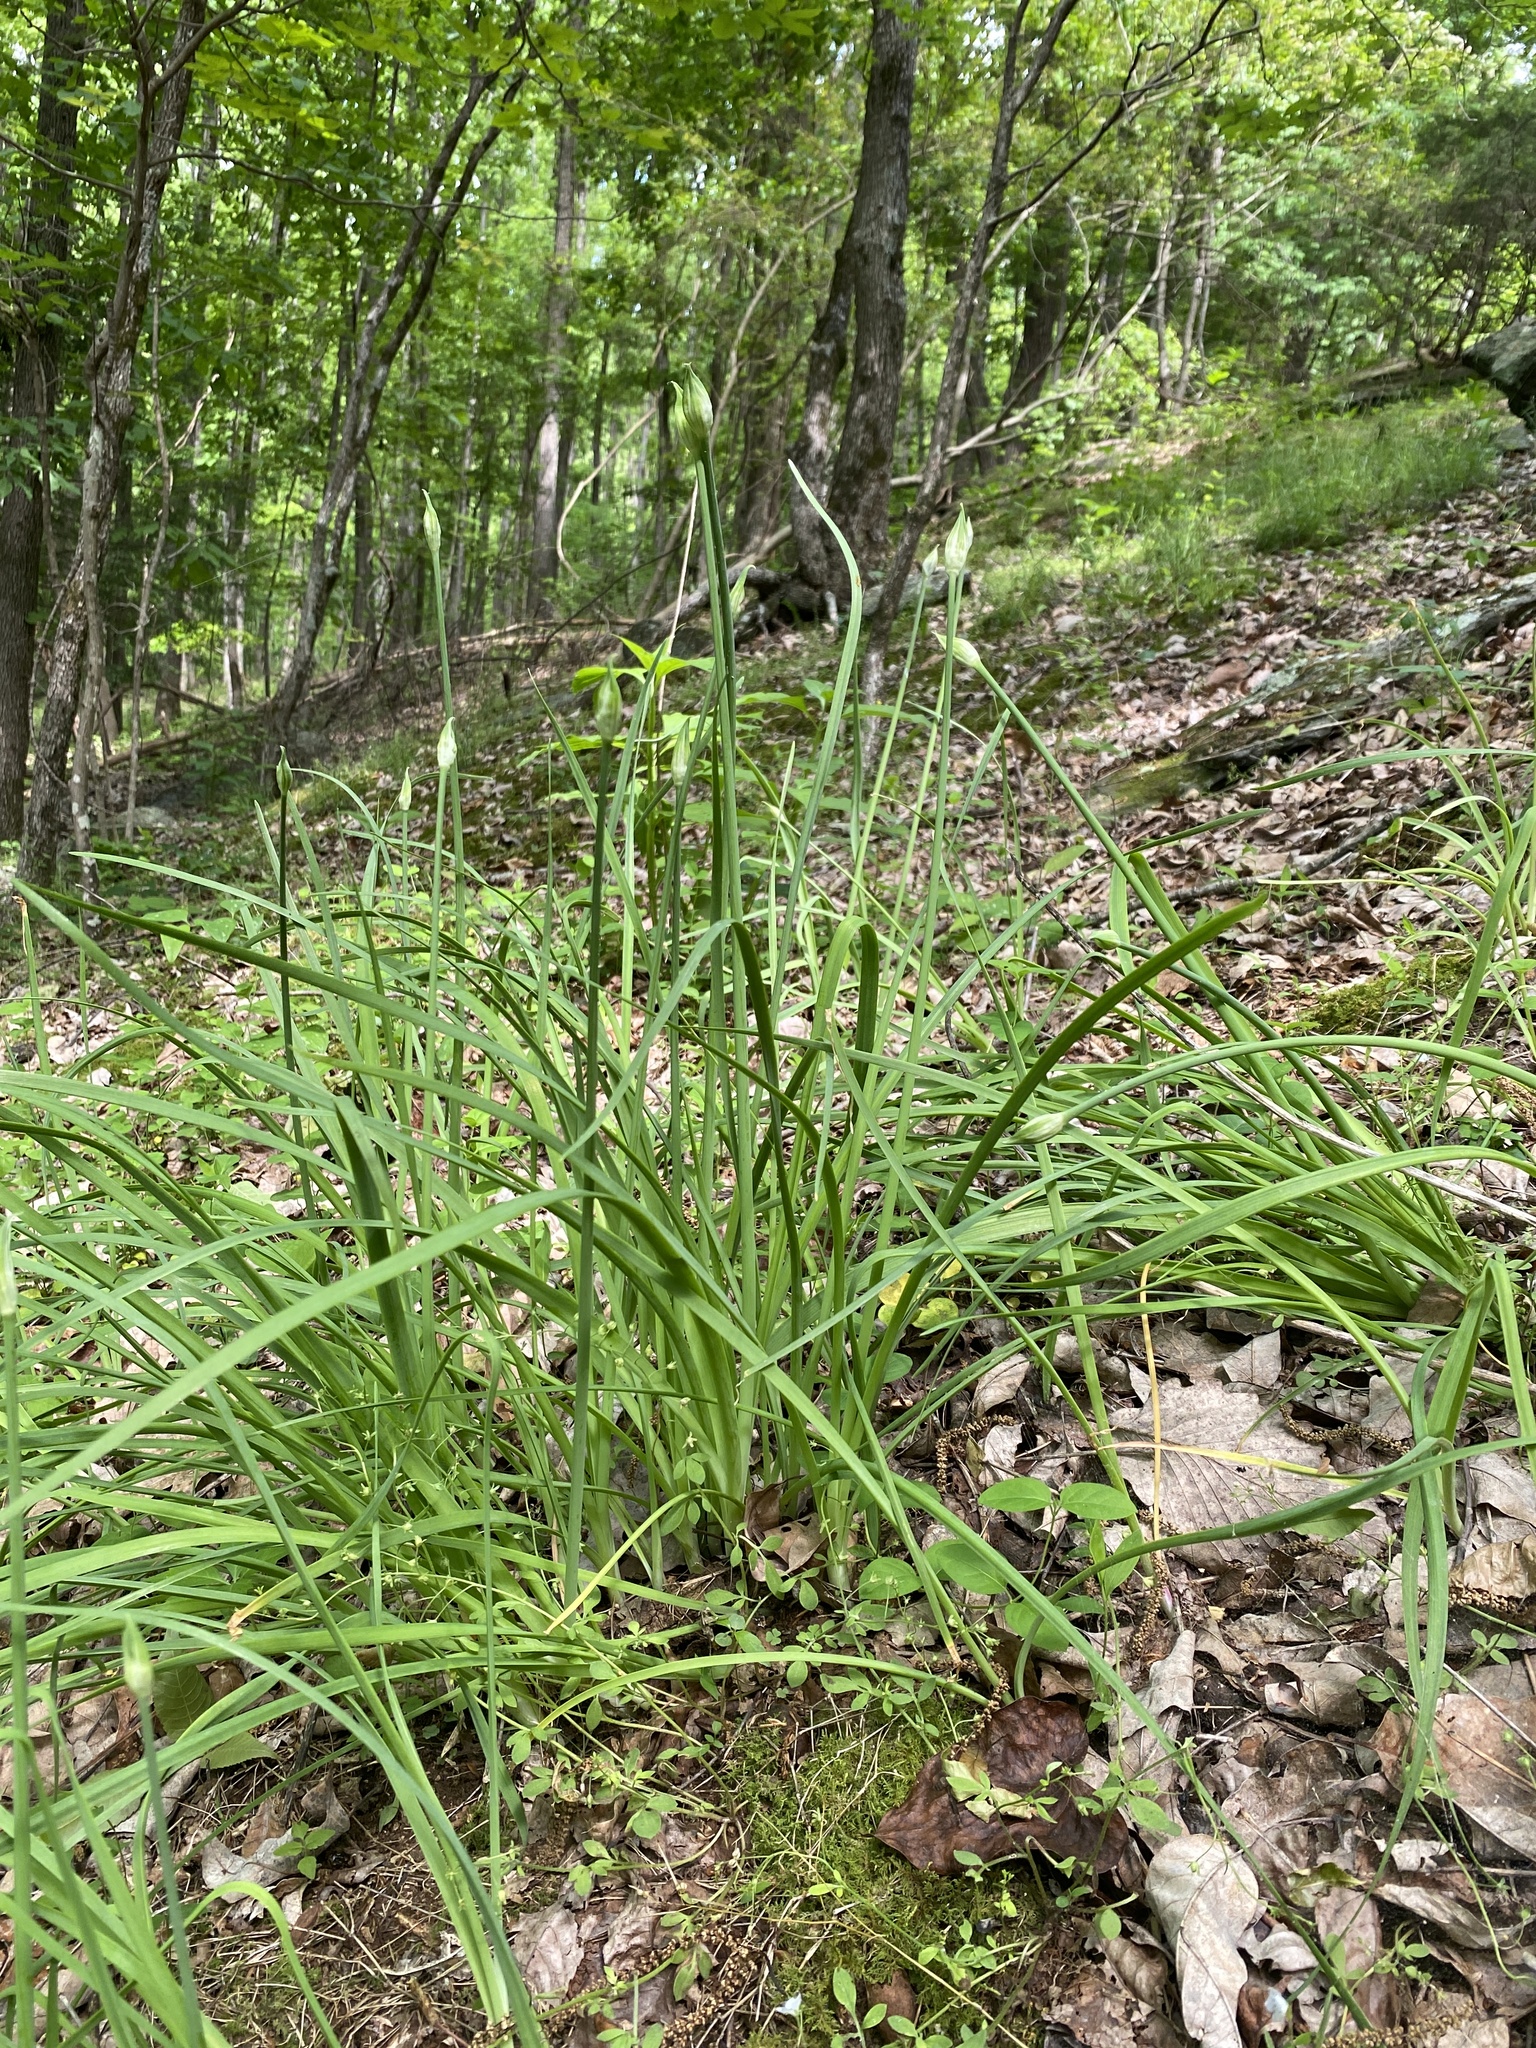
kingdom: Plantae
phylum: Tracheophyta
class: Liliopsida
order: Asparagales
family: Amaryllidaceae
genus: Allium
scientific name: Allium keeverae
